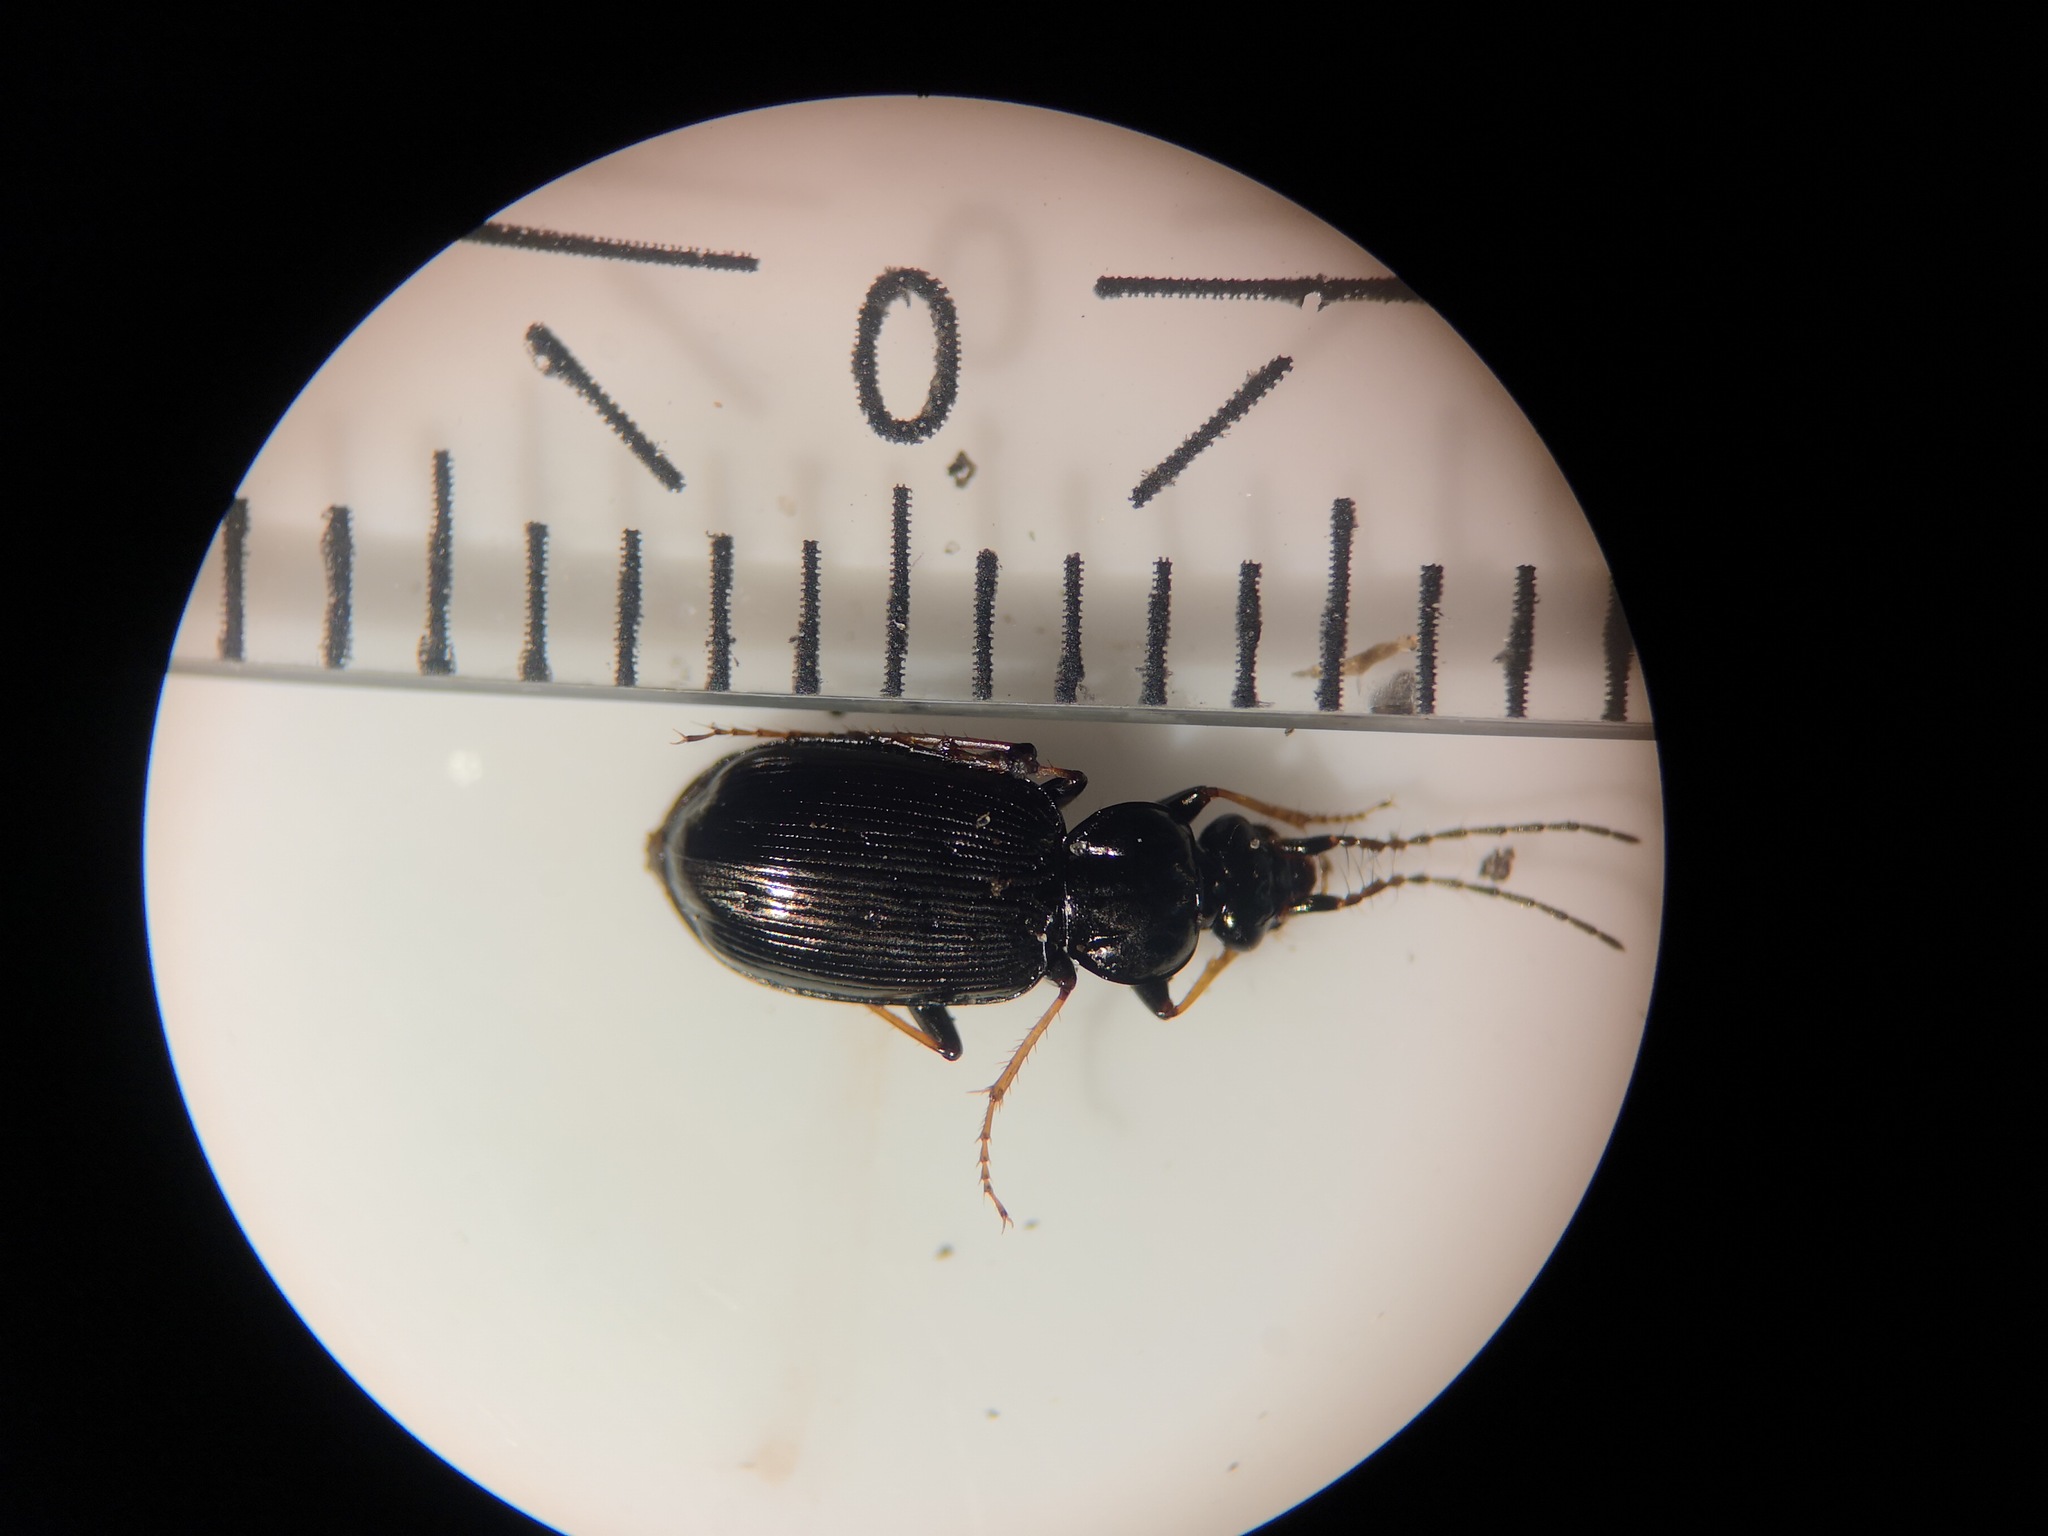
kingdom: Animalia
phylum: Arthropoda
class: Insecta
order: Coleoptera
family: Carabidae
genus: Loricera
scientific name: Loricera pilicornis
